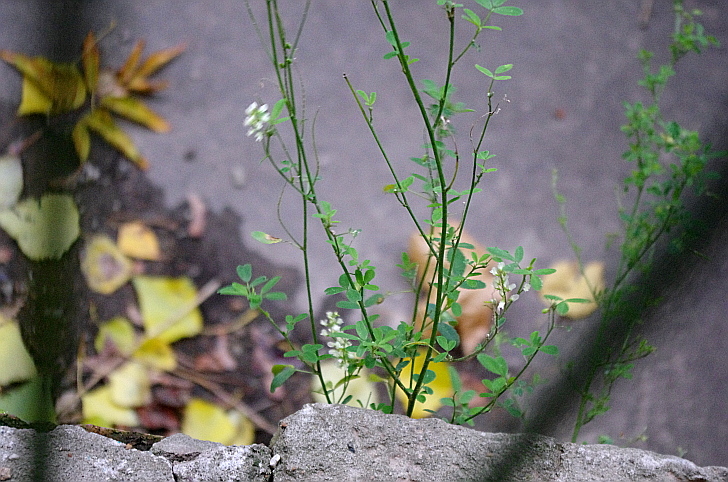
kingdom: Plantae
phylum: Tracheophyta
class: Magnoliopsida
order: Fabales
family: Fabaceae
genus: Melilotus
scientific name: Melilotus albus
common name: White melilot
